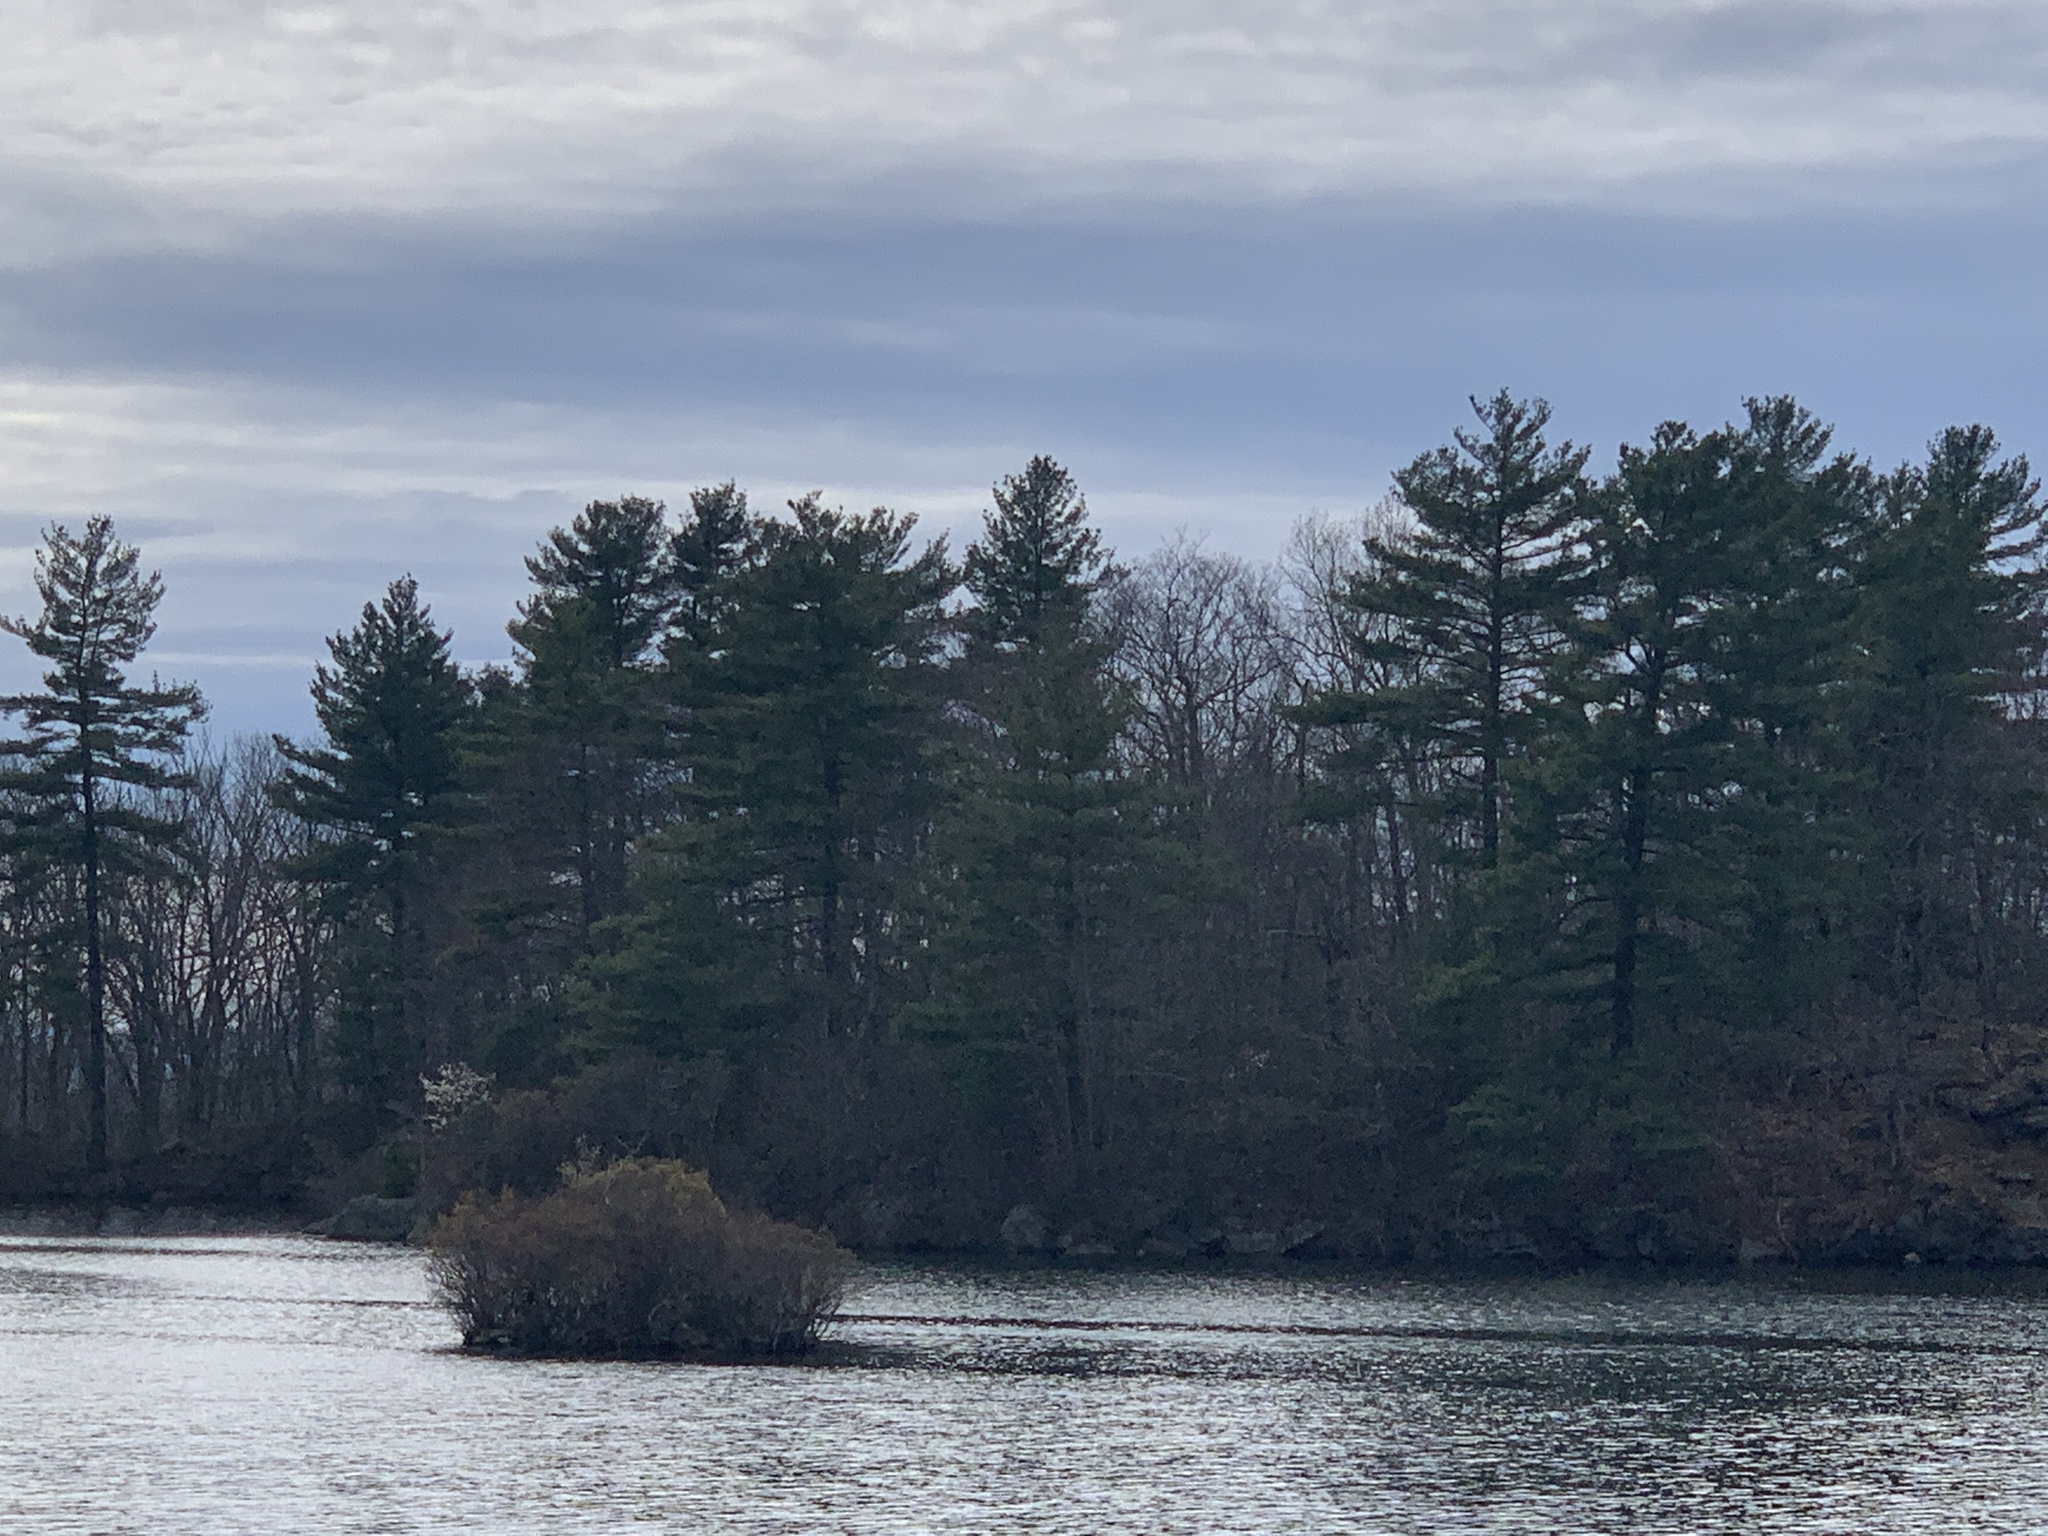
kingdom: Plantae
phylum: Tracheophyta
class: Pinopsida
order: Pinales
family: Pinaceae
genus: Pinus
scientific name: Pinus strobus
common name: Weymouth pine
